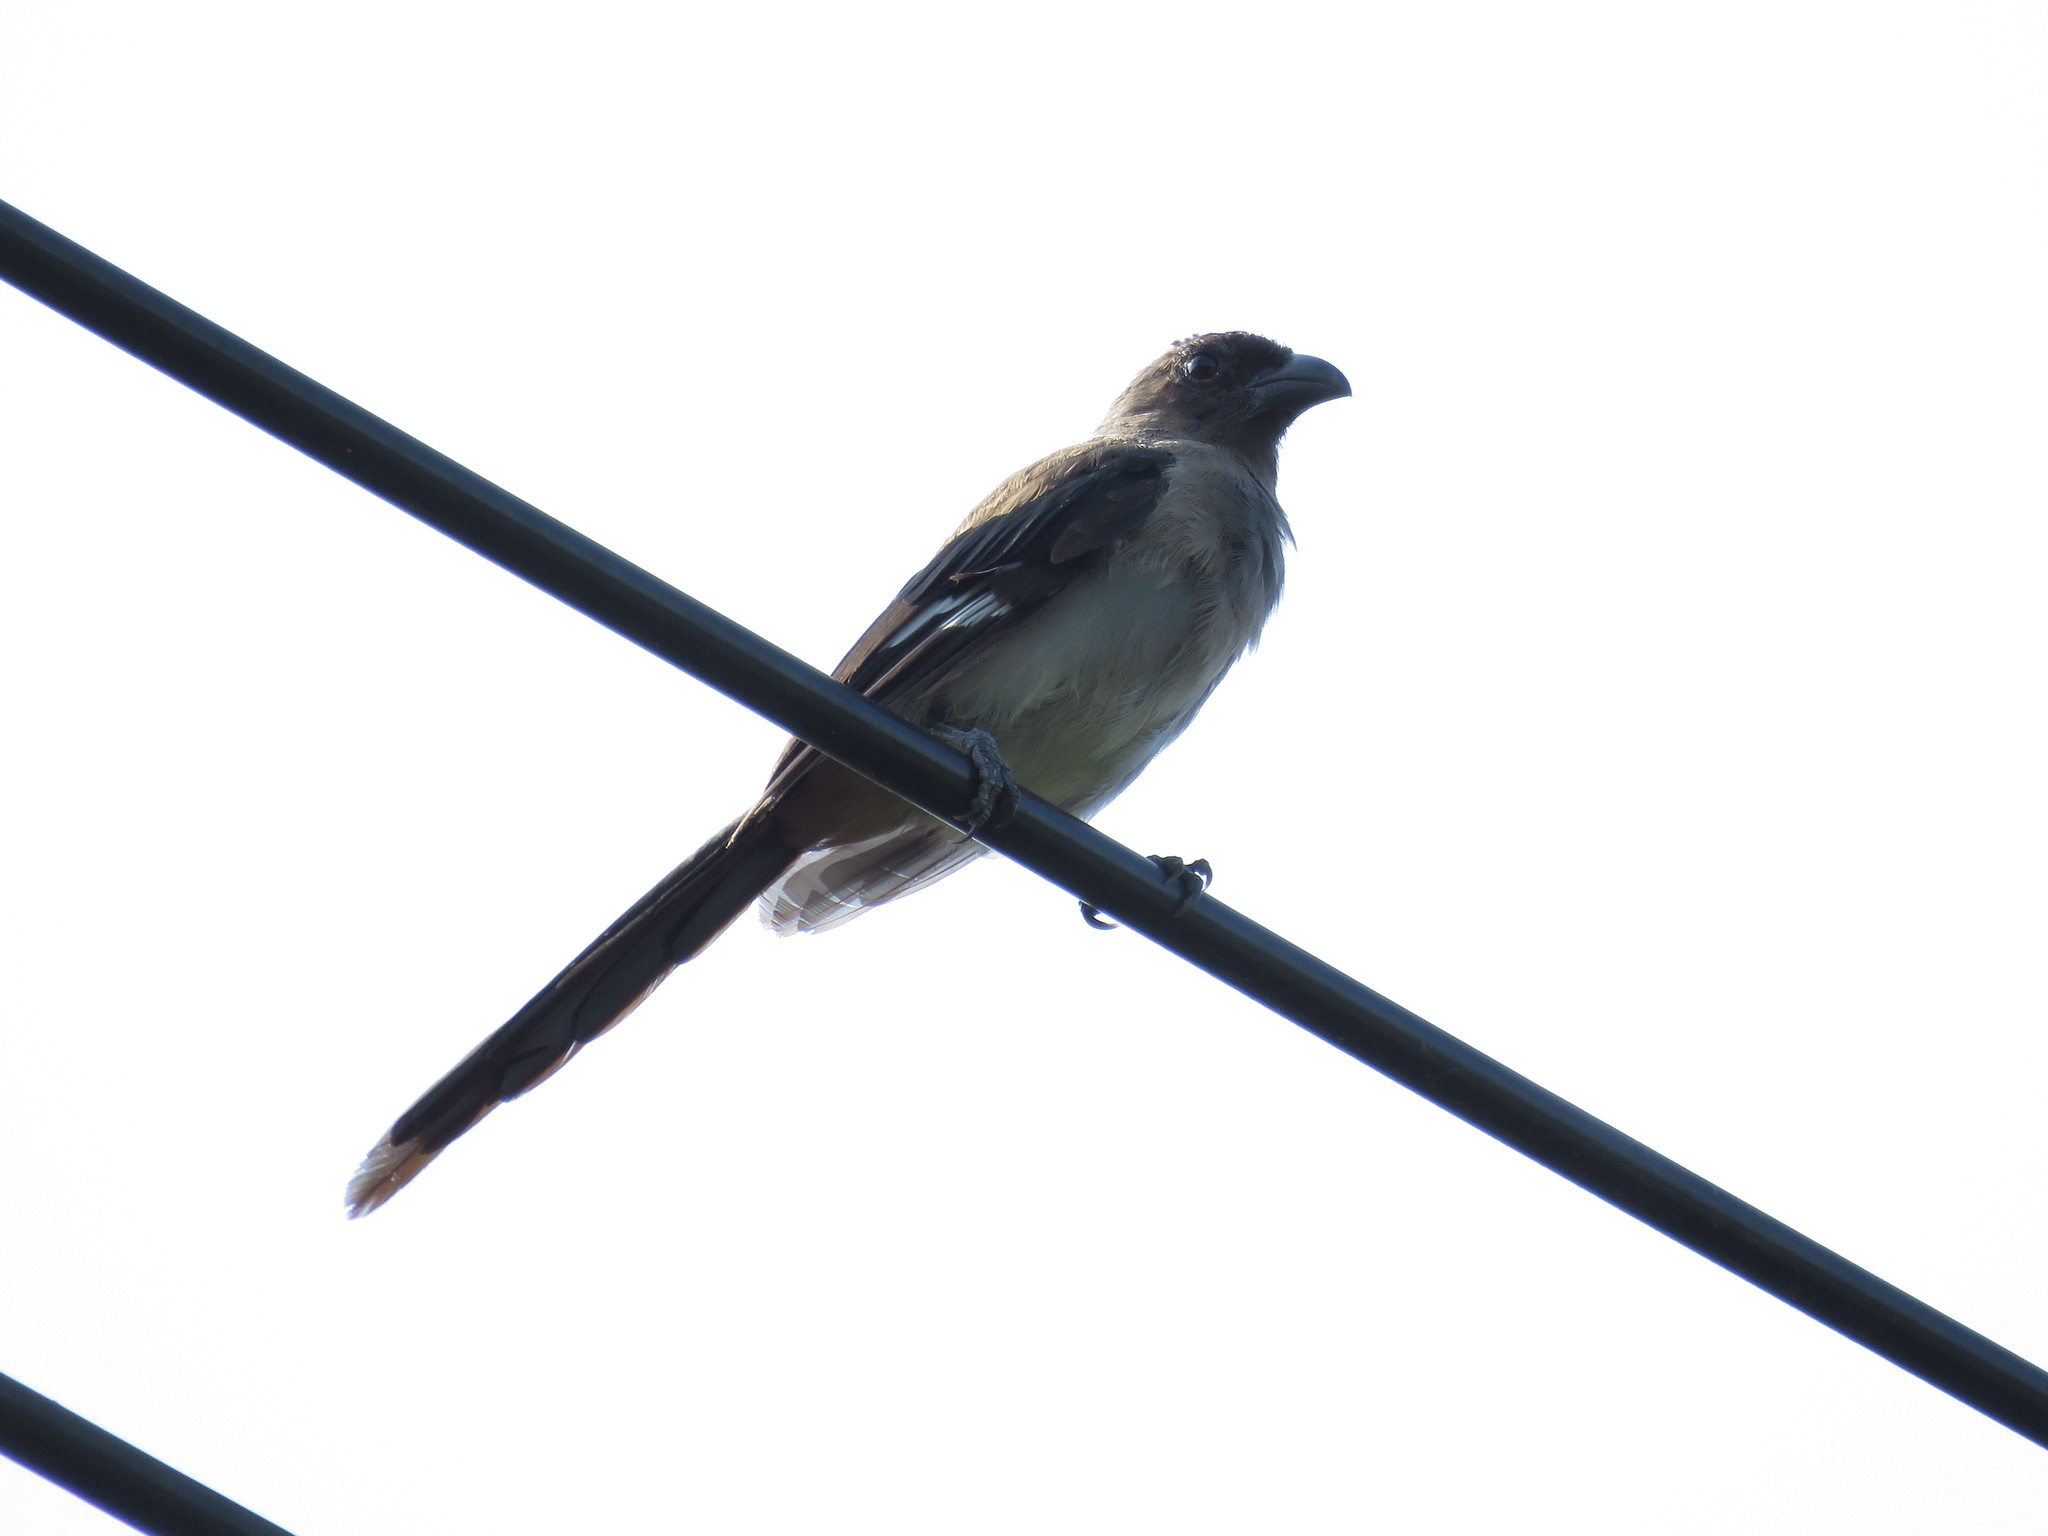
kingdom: Animalia
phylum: Chordata
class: Aves
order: Passeriformes
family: Corvidae
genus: Dendrocitta
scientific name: Dendrocitta formosae
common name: Grey treepie
